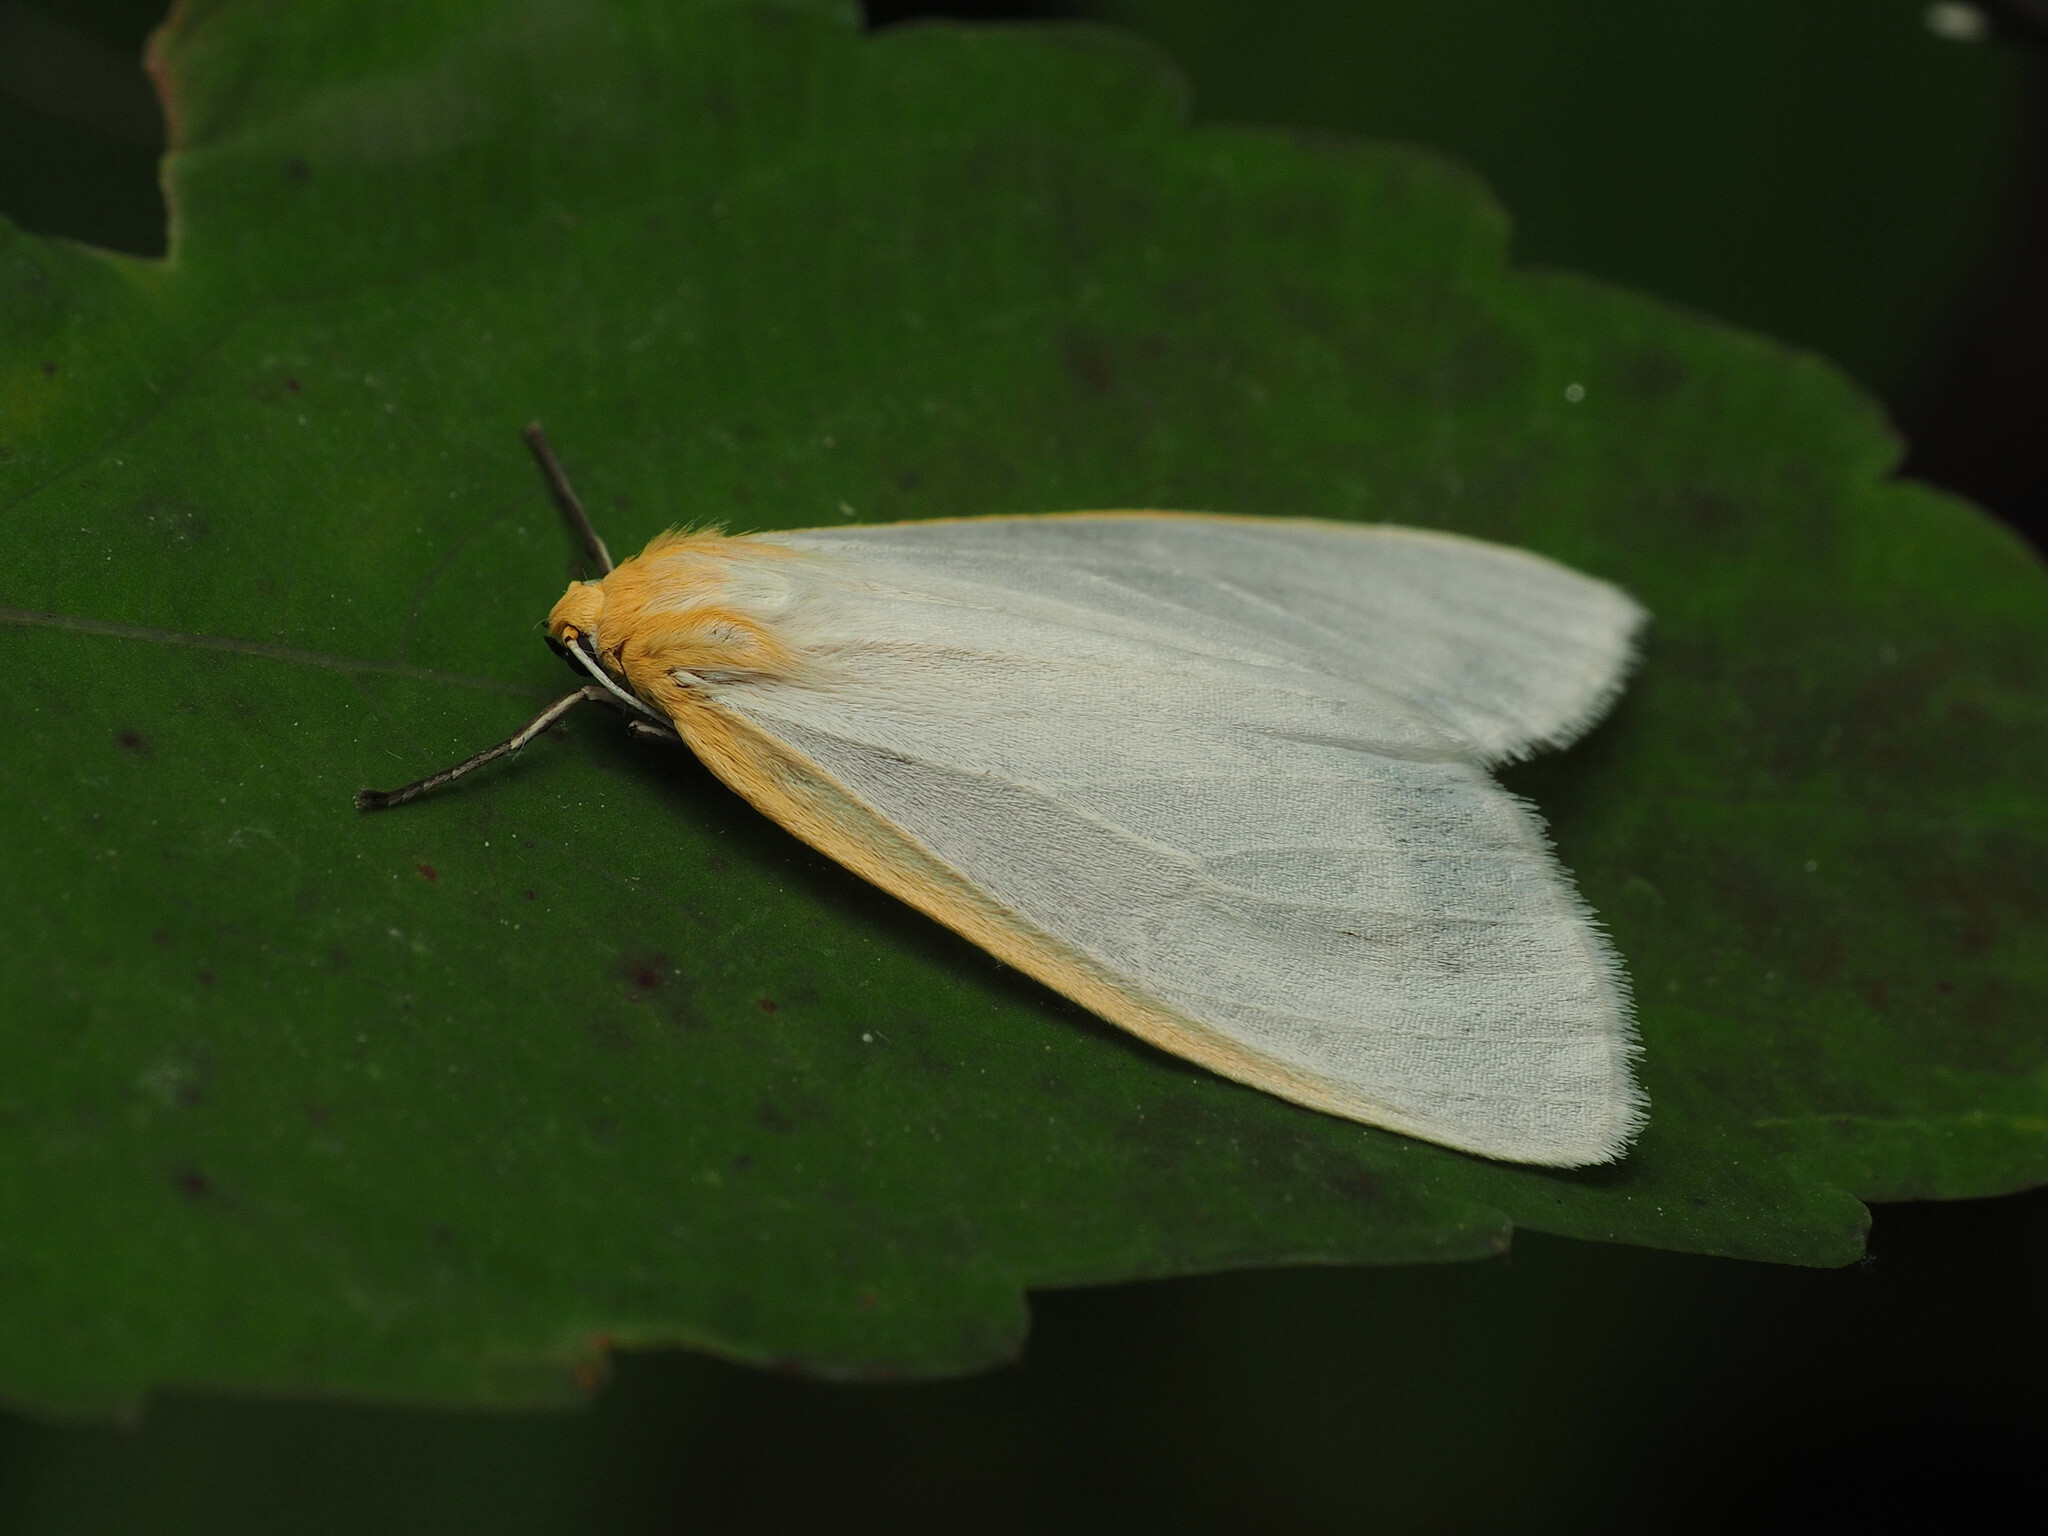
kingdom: Animalia
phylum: Arthropoda
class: Insecta
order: Lepidoptera
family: Erebidae
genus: Cycnia
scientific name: Cycnia tenera
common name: Delicate cycnia moth
